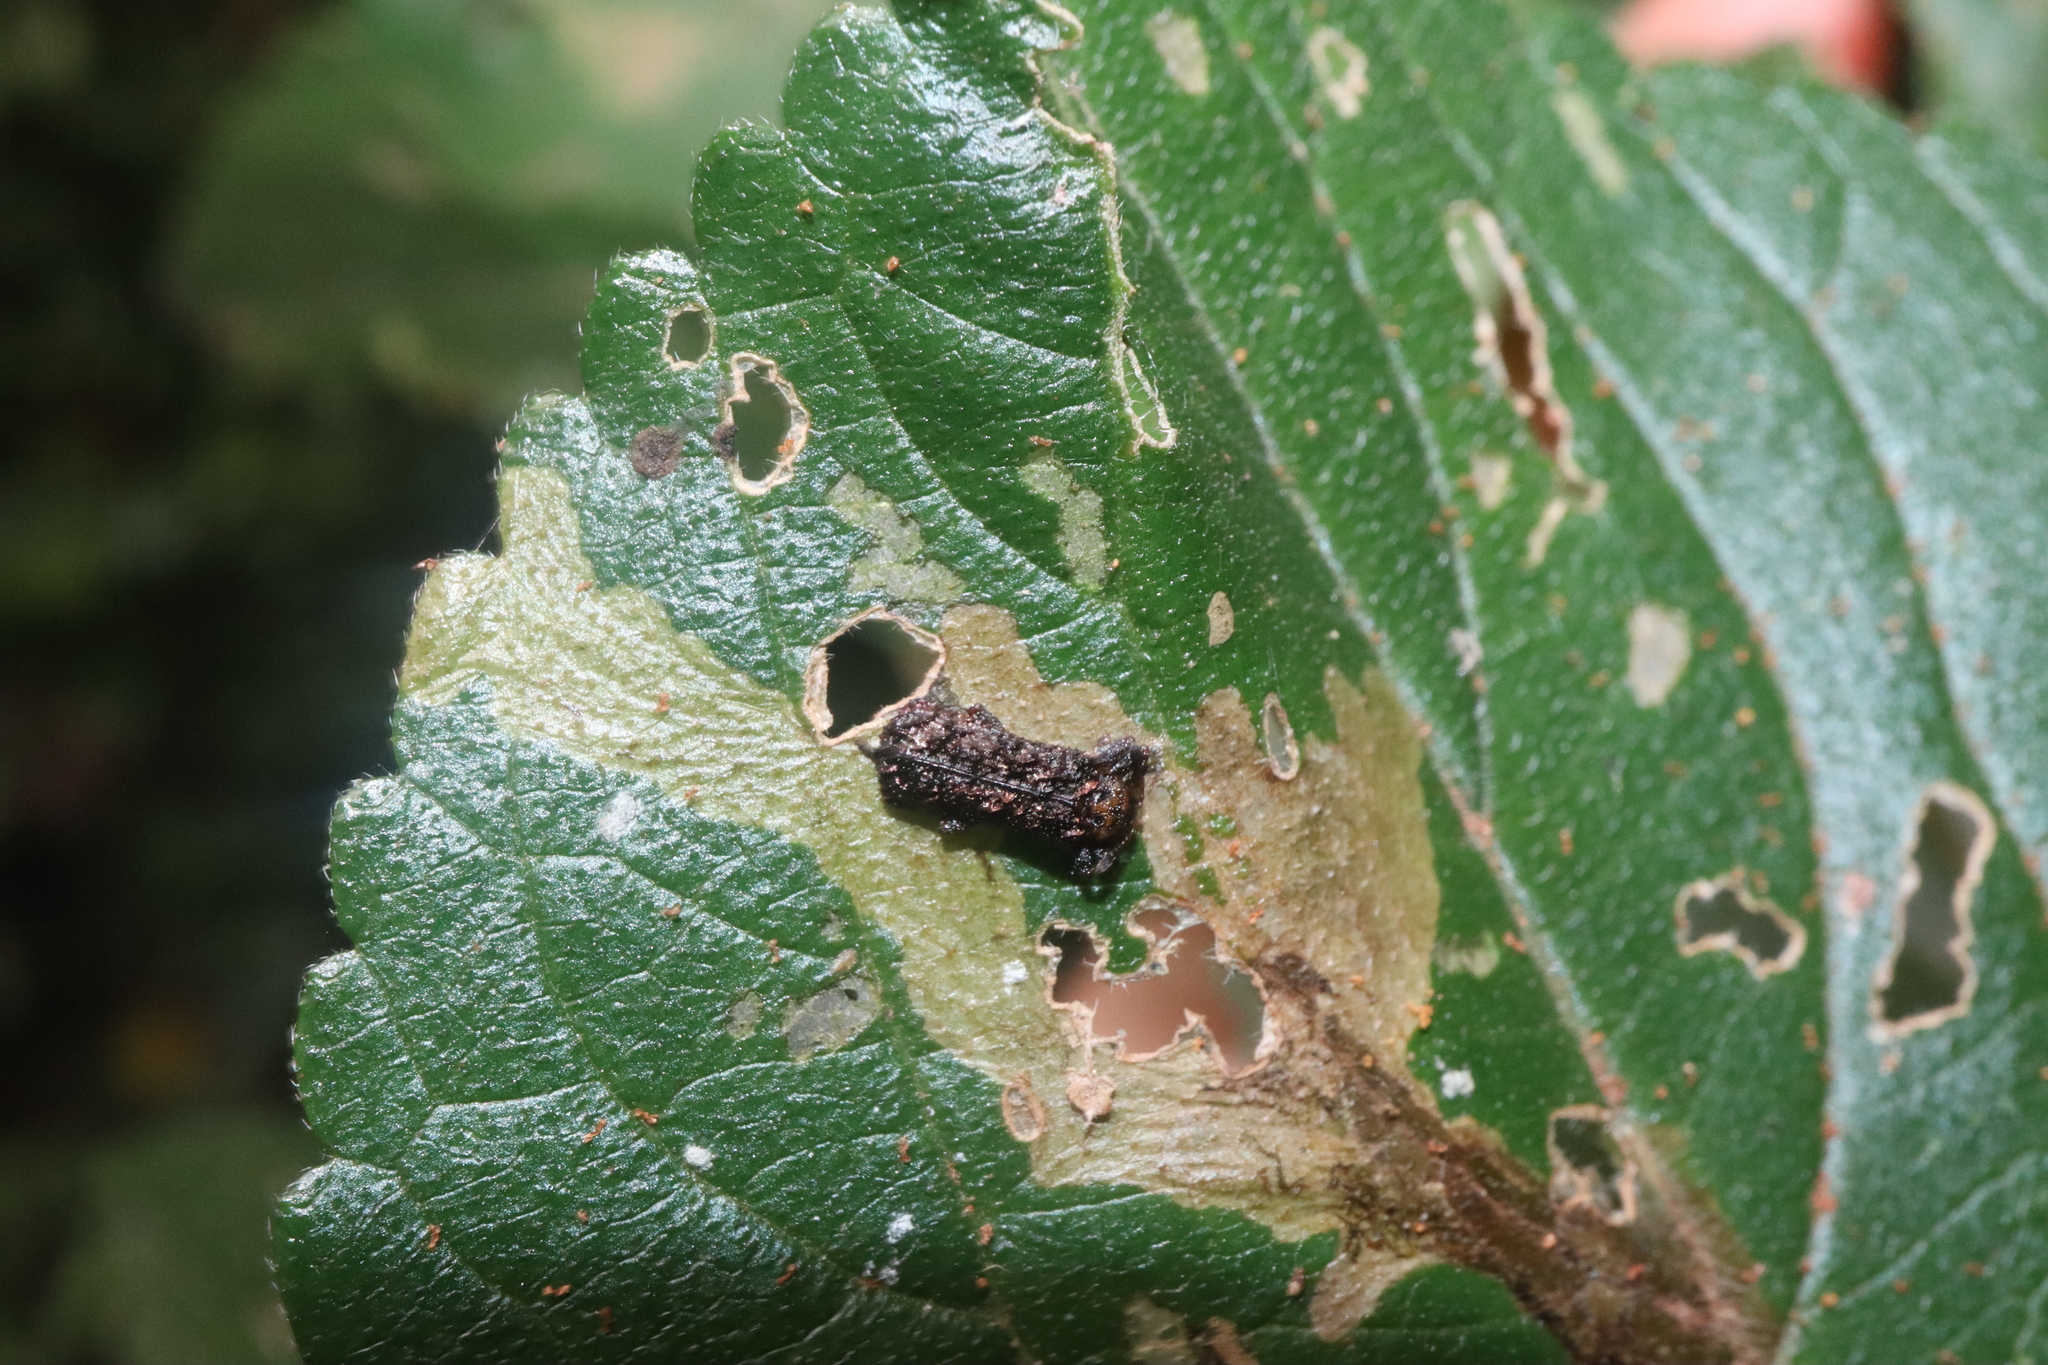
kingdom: Animalia
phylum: Arthropoda
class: Insecta
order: Coleoptera
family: Chrysomelidae
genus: Octotoma
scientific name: Octotoma scabripennis
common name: Beetle
